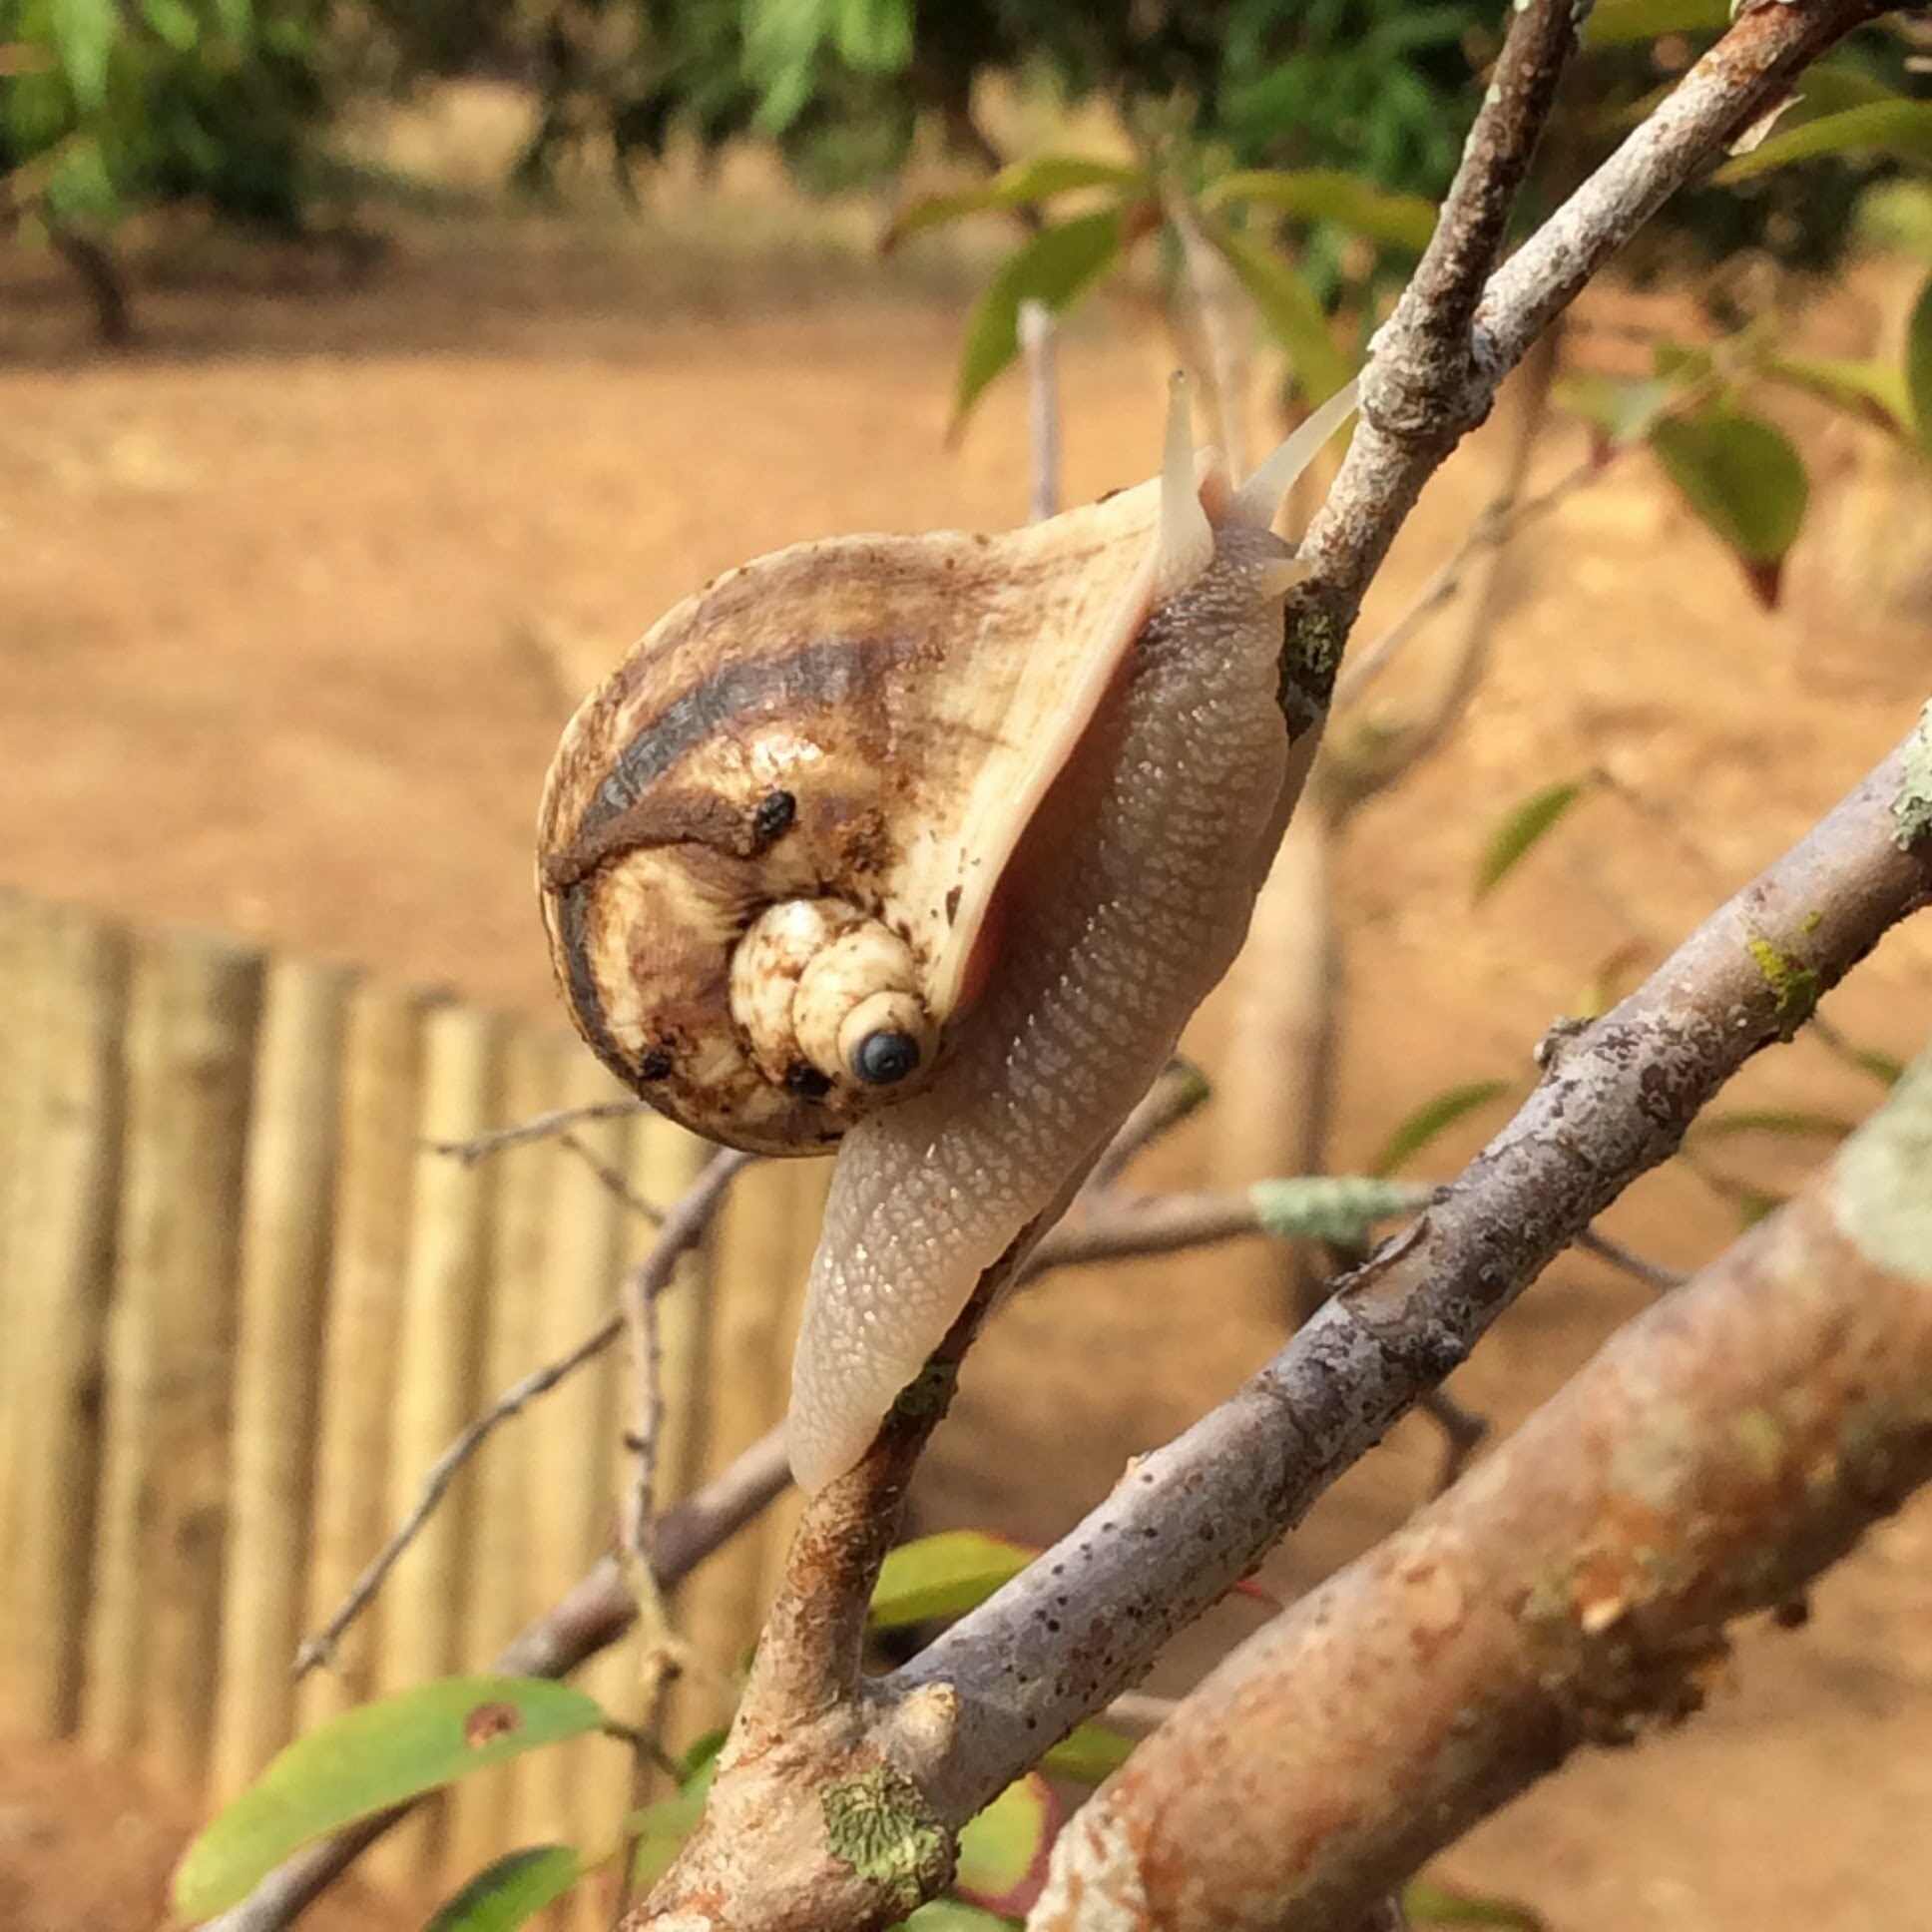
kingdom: Animalia
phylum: Mollusca
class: Gastropoda
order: Stylommatophora
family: Bulimulidae
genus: Cochlorina
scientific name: Cochlorina involuta
